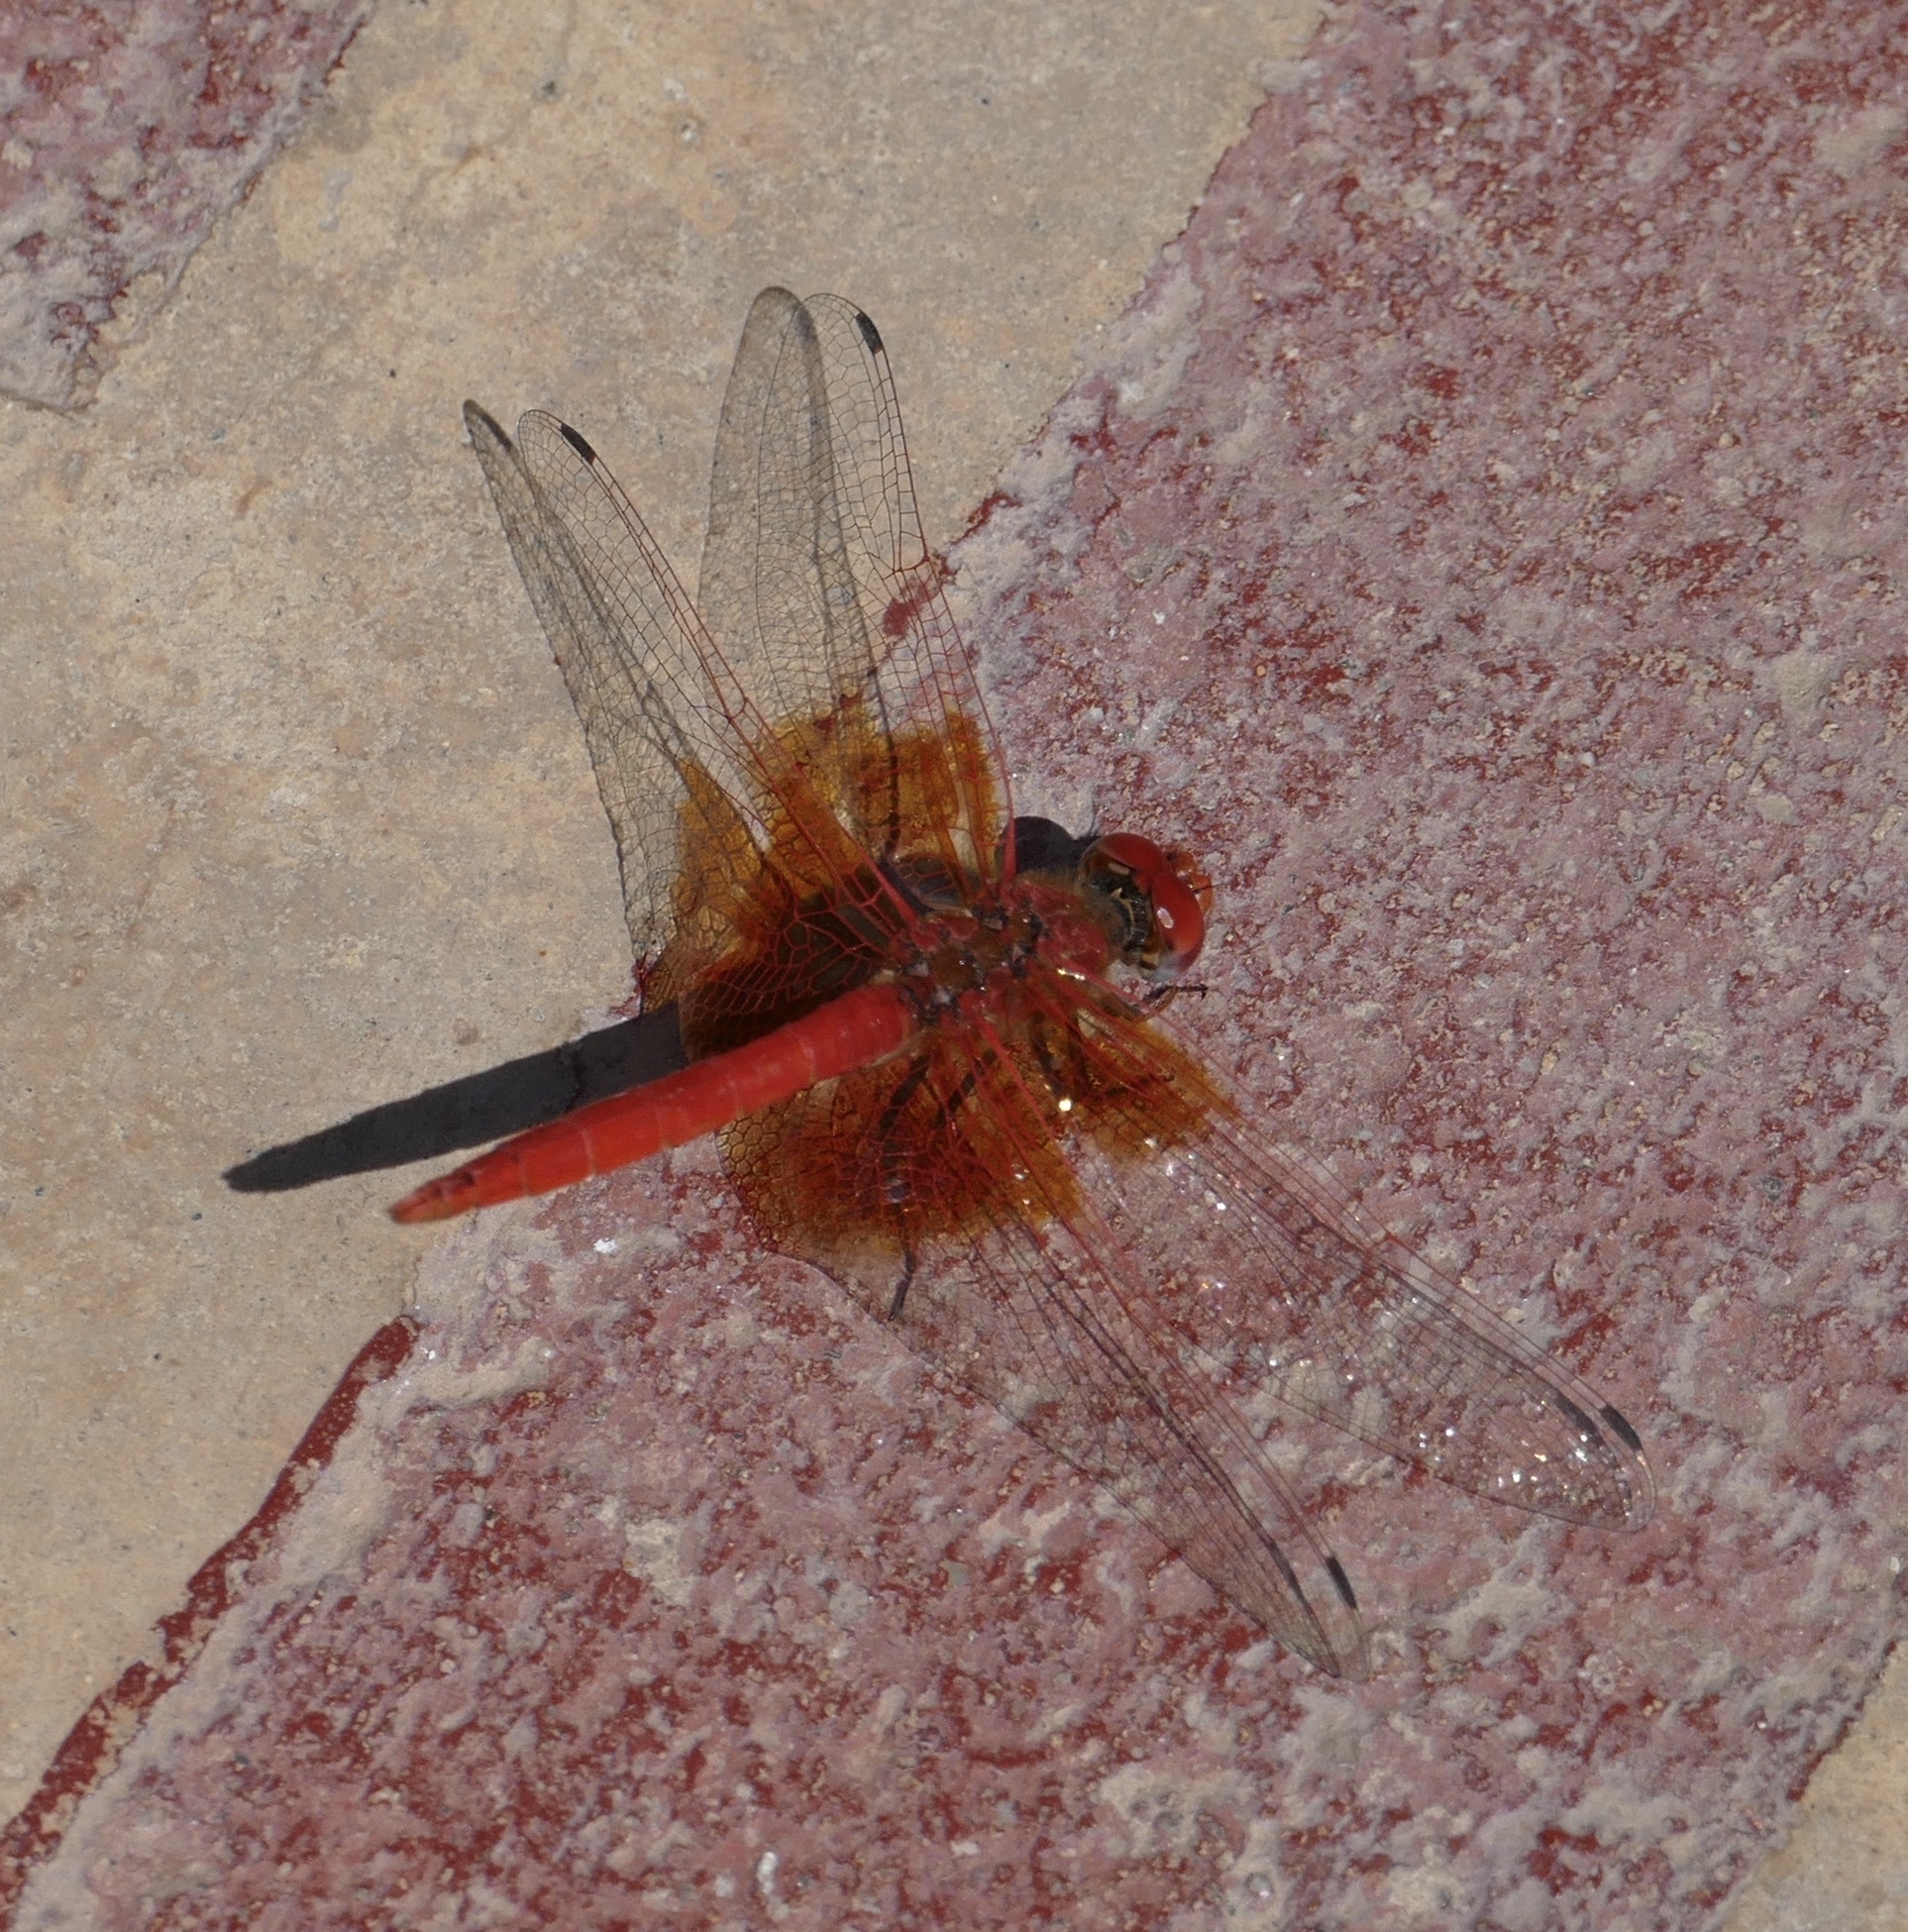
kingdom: Animalia
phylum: Arthropoda
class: Insecta
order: Odonata
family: Libellulidae
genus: Trithemis
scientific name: Trithemis kirbyi
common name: Kirby's dropwing
